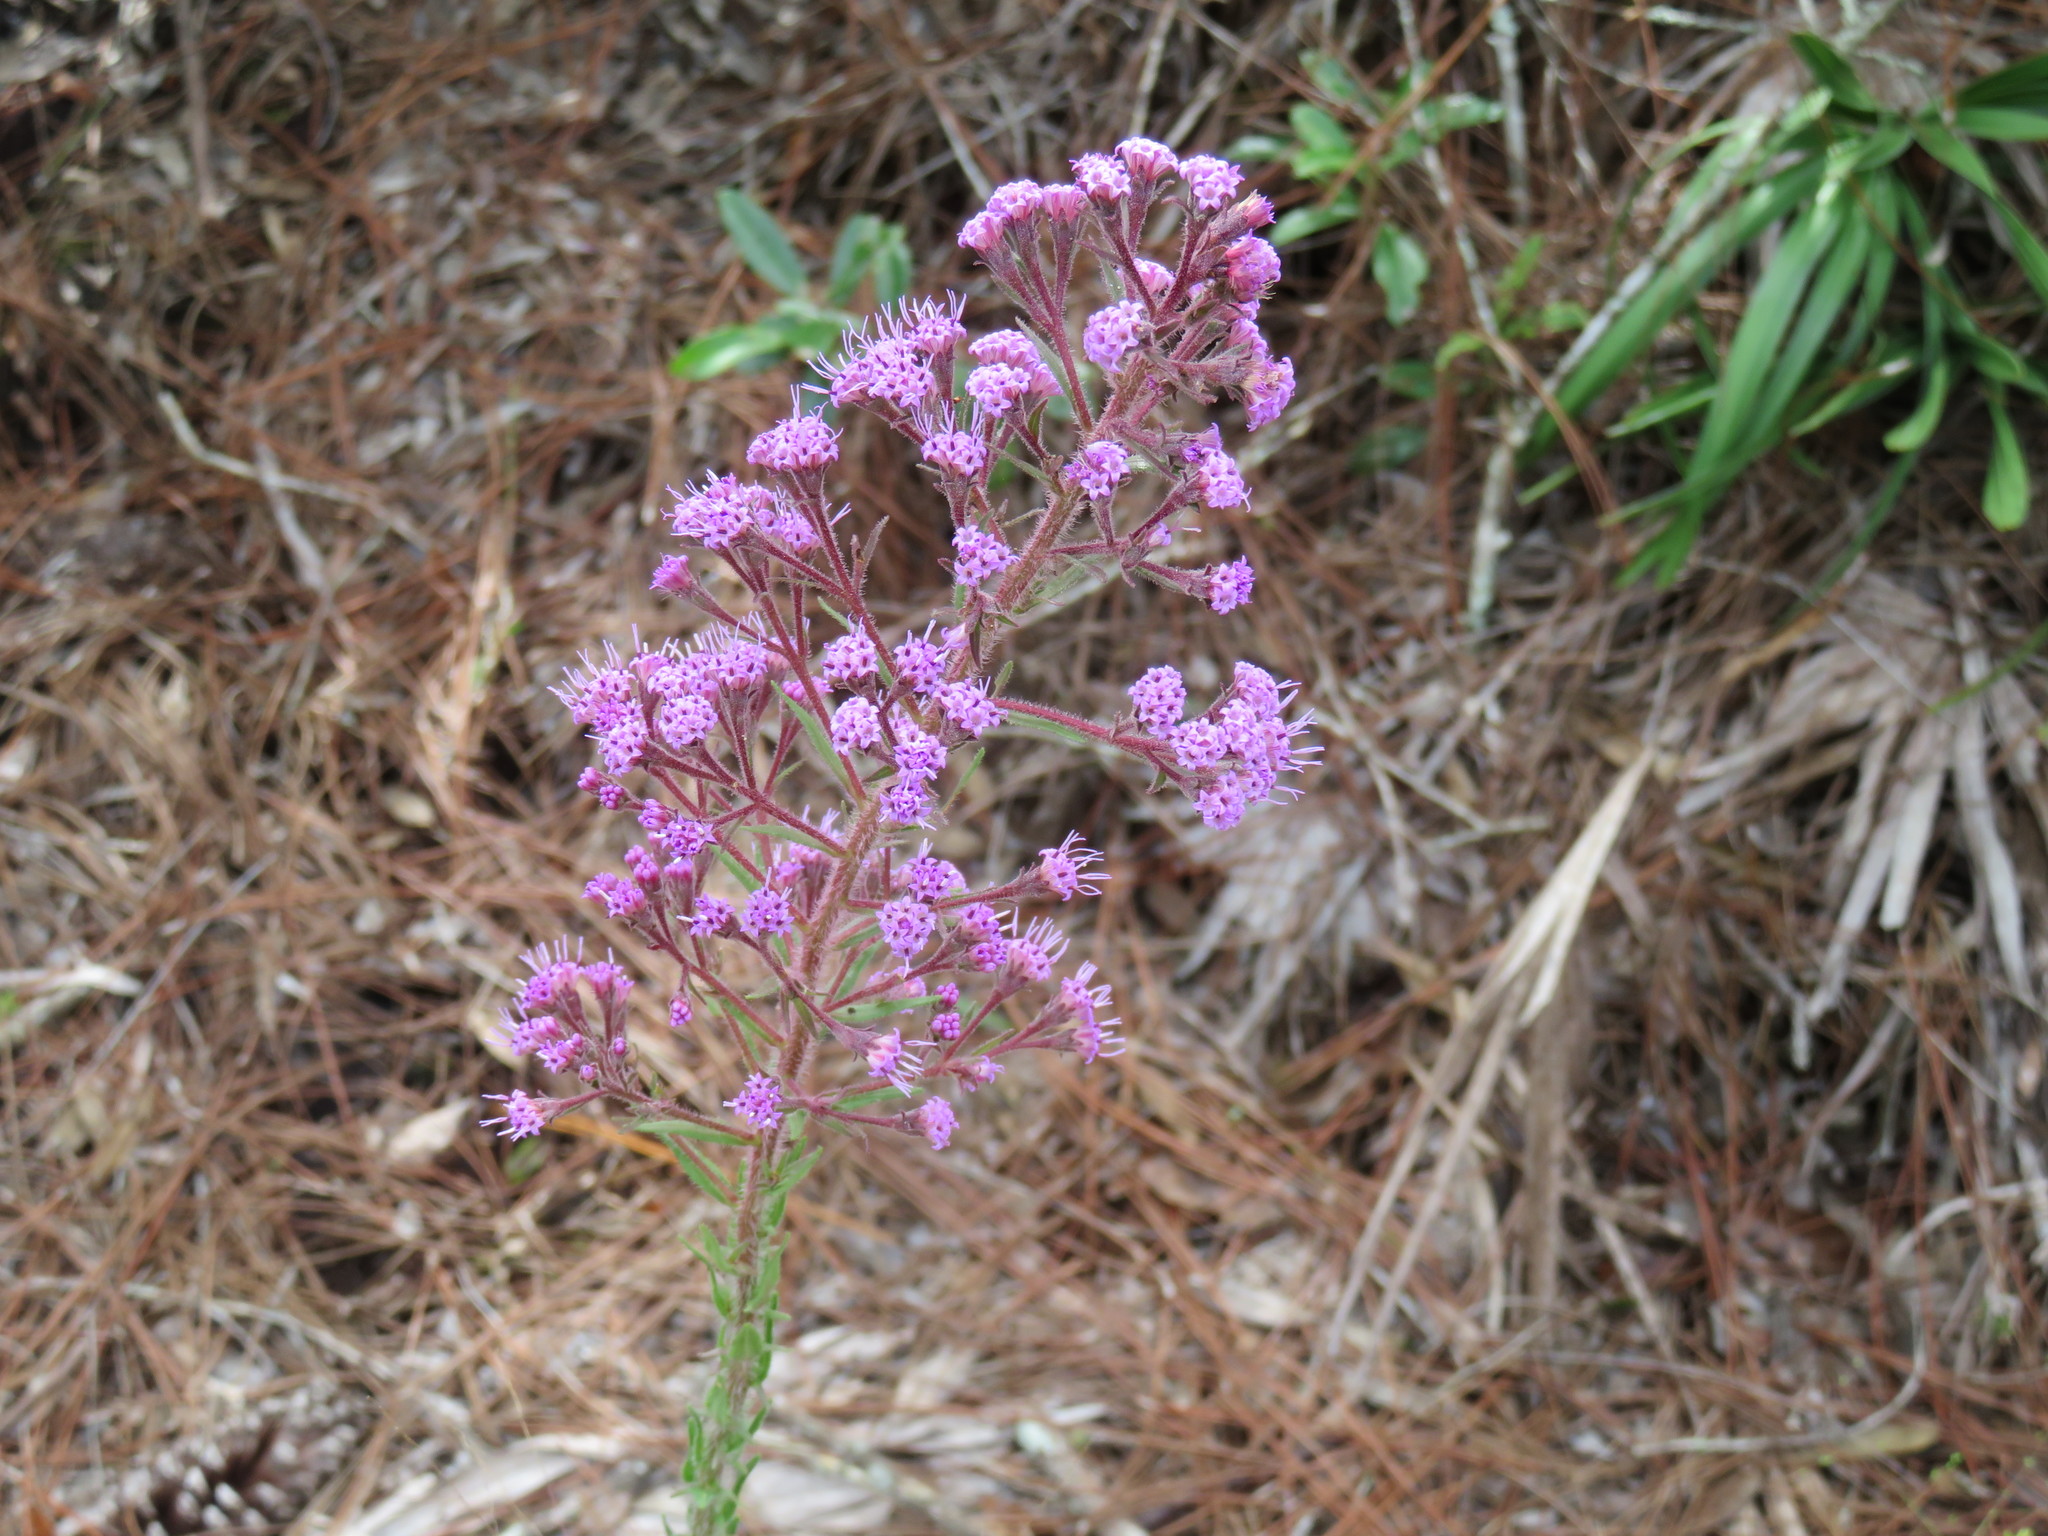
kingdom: Plantae
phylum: Tracheophyta
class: Magnoliopsida
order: Asterales
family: Asteraceae
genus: Carphephorus
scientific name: Carphephorus paniculatus
